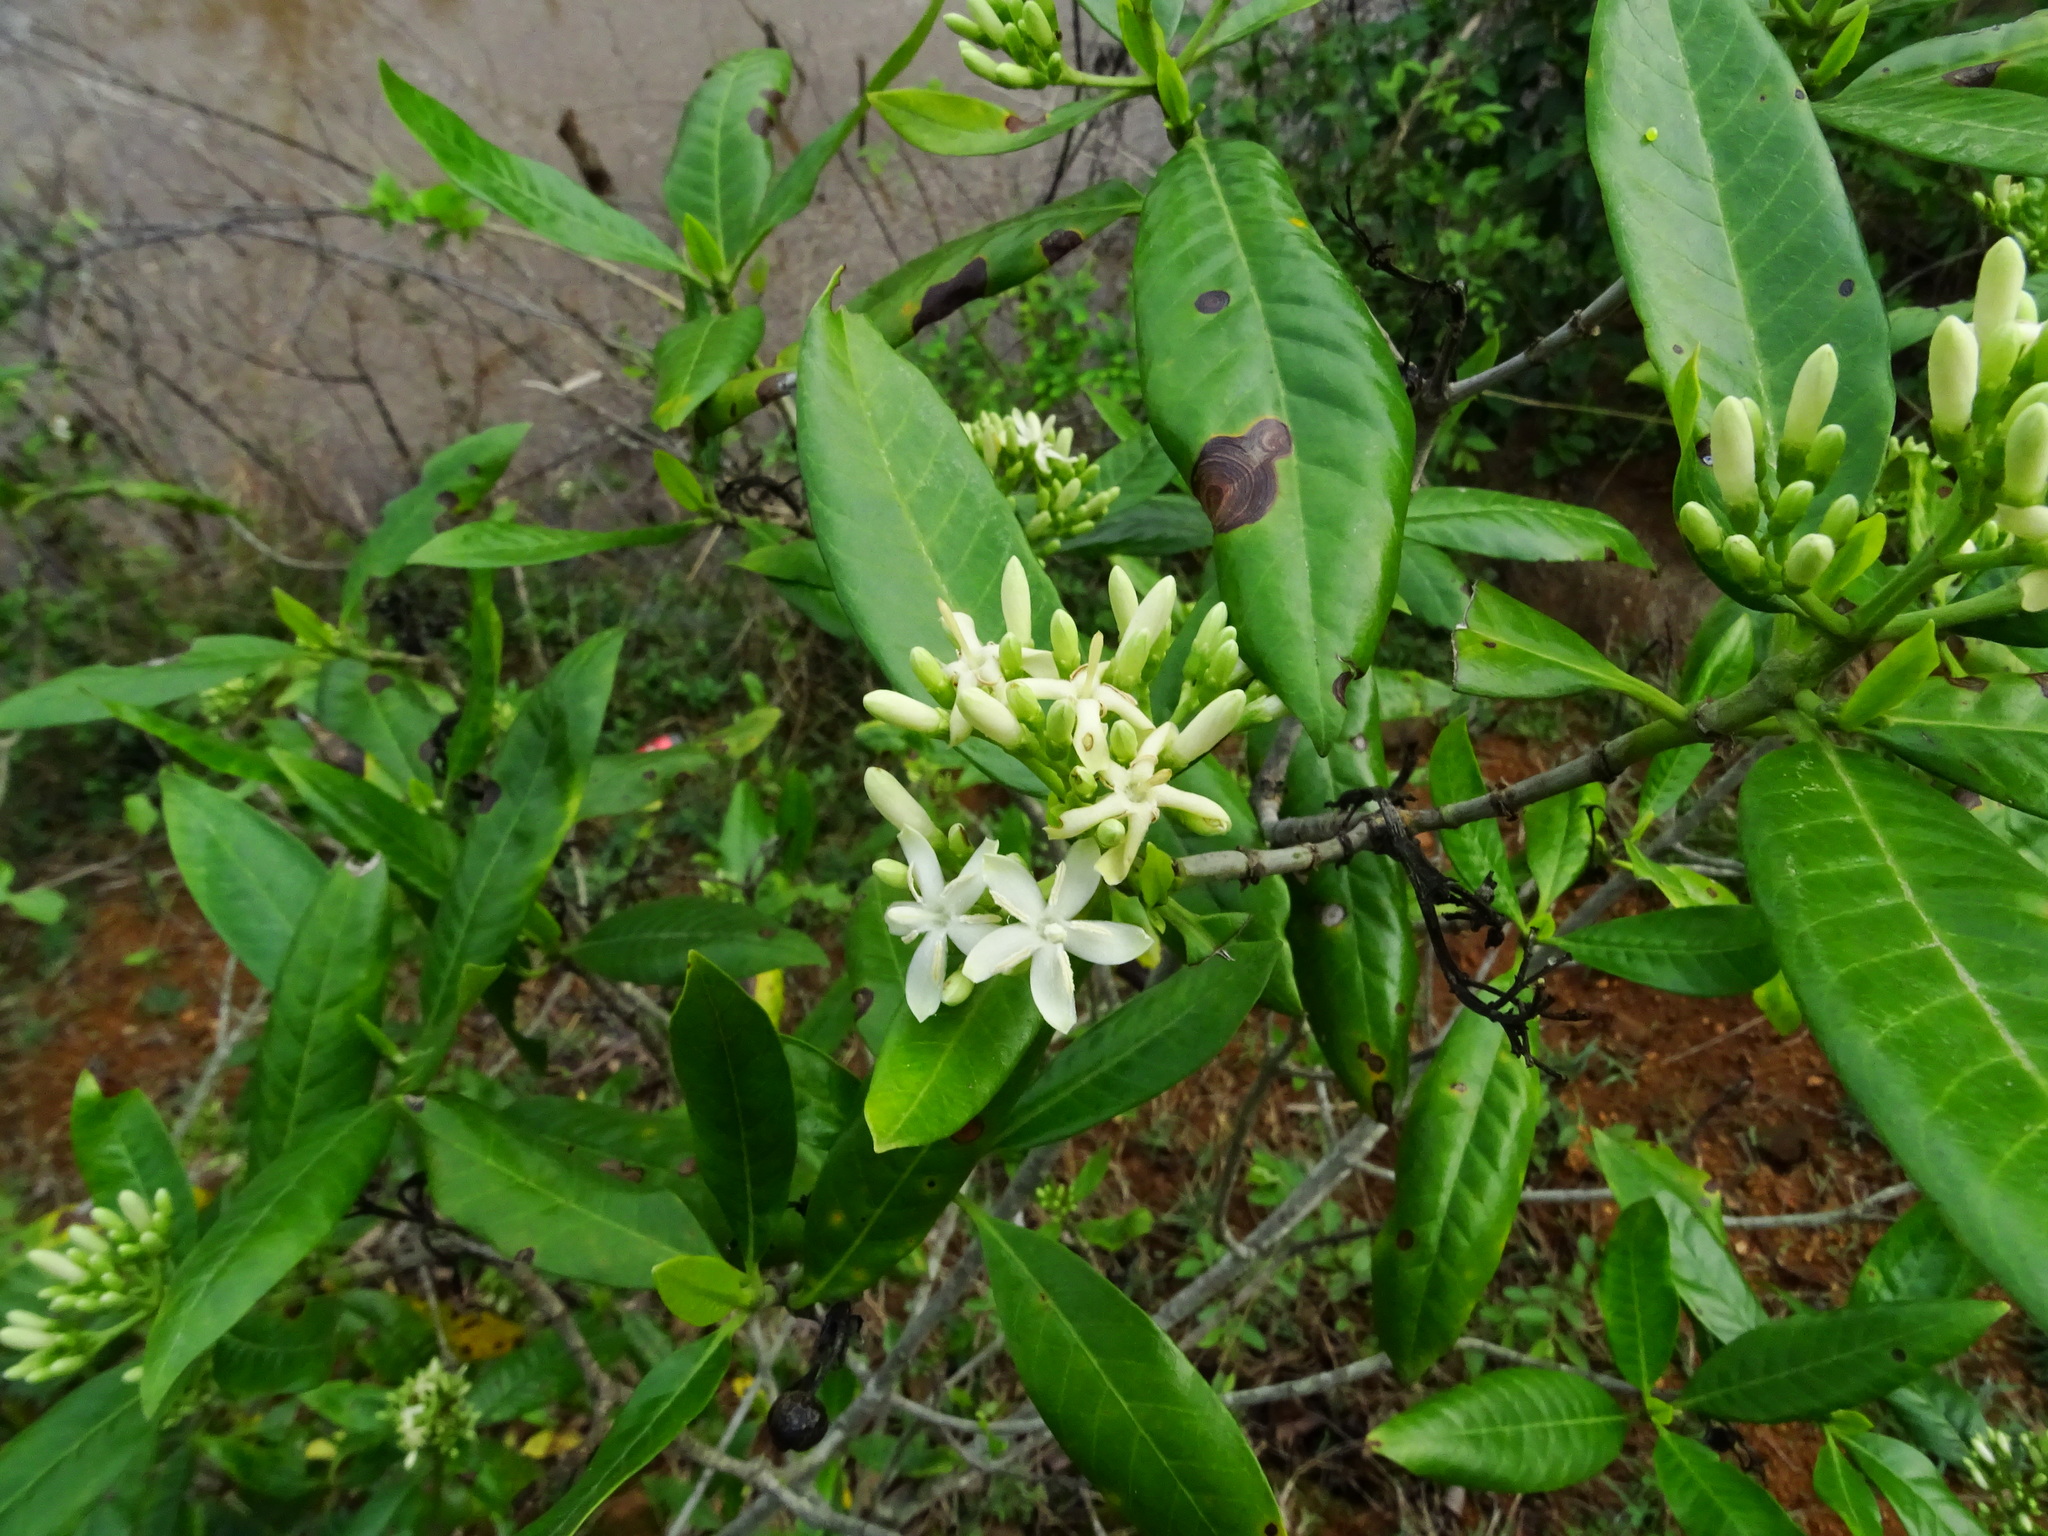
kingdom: Plantae
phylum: Tracheophyta
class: Magnoliopsida
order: Gentianales
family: Rubiaceae
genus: Tarenna
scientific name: Tarenna asiatica
